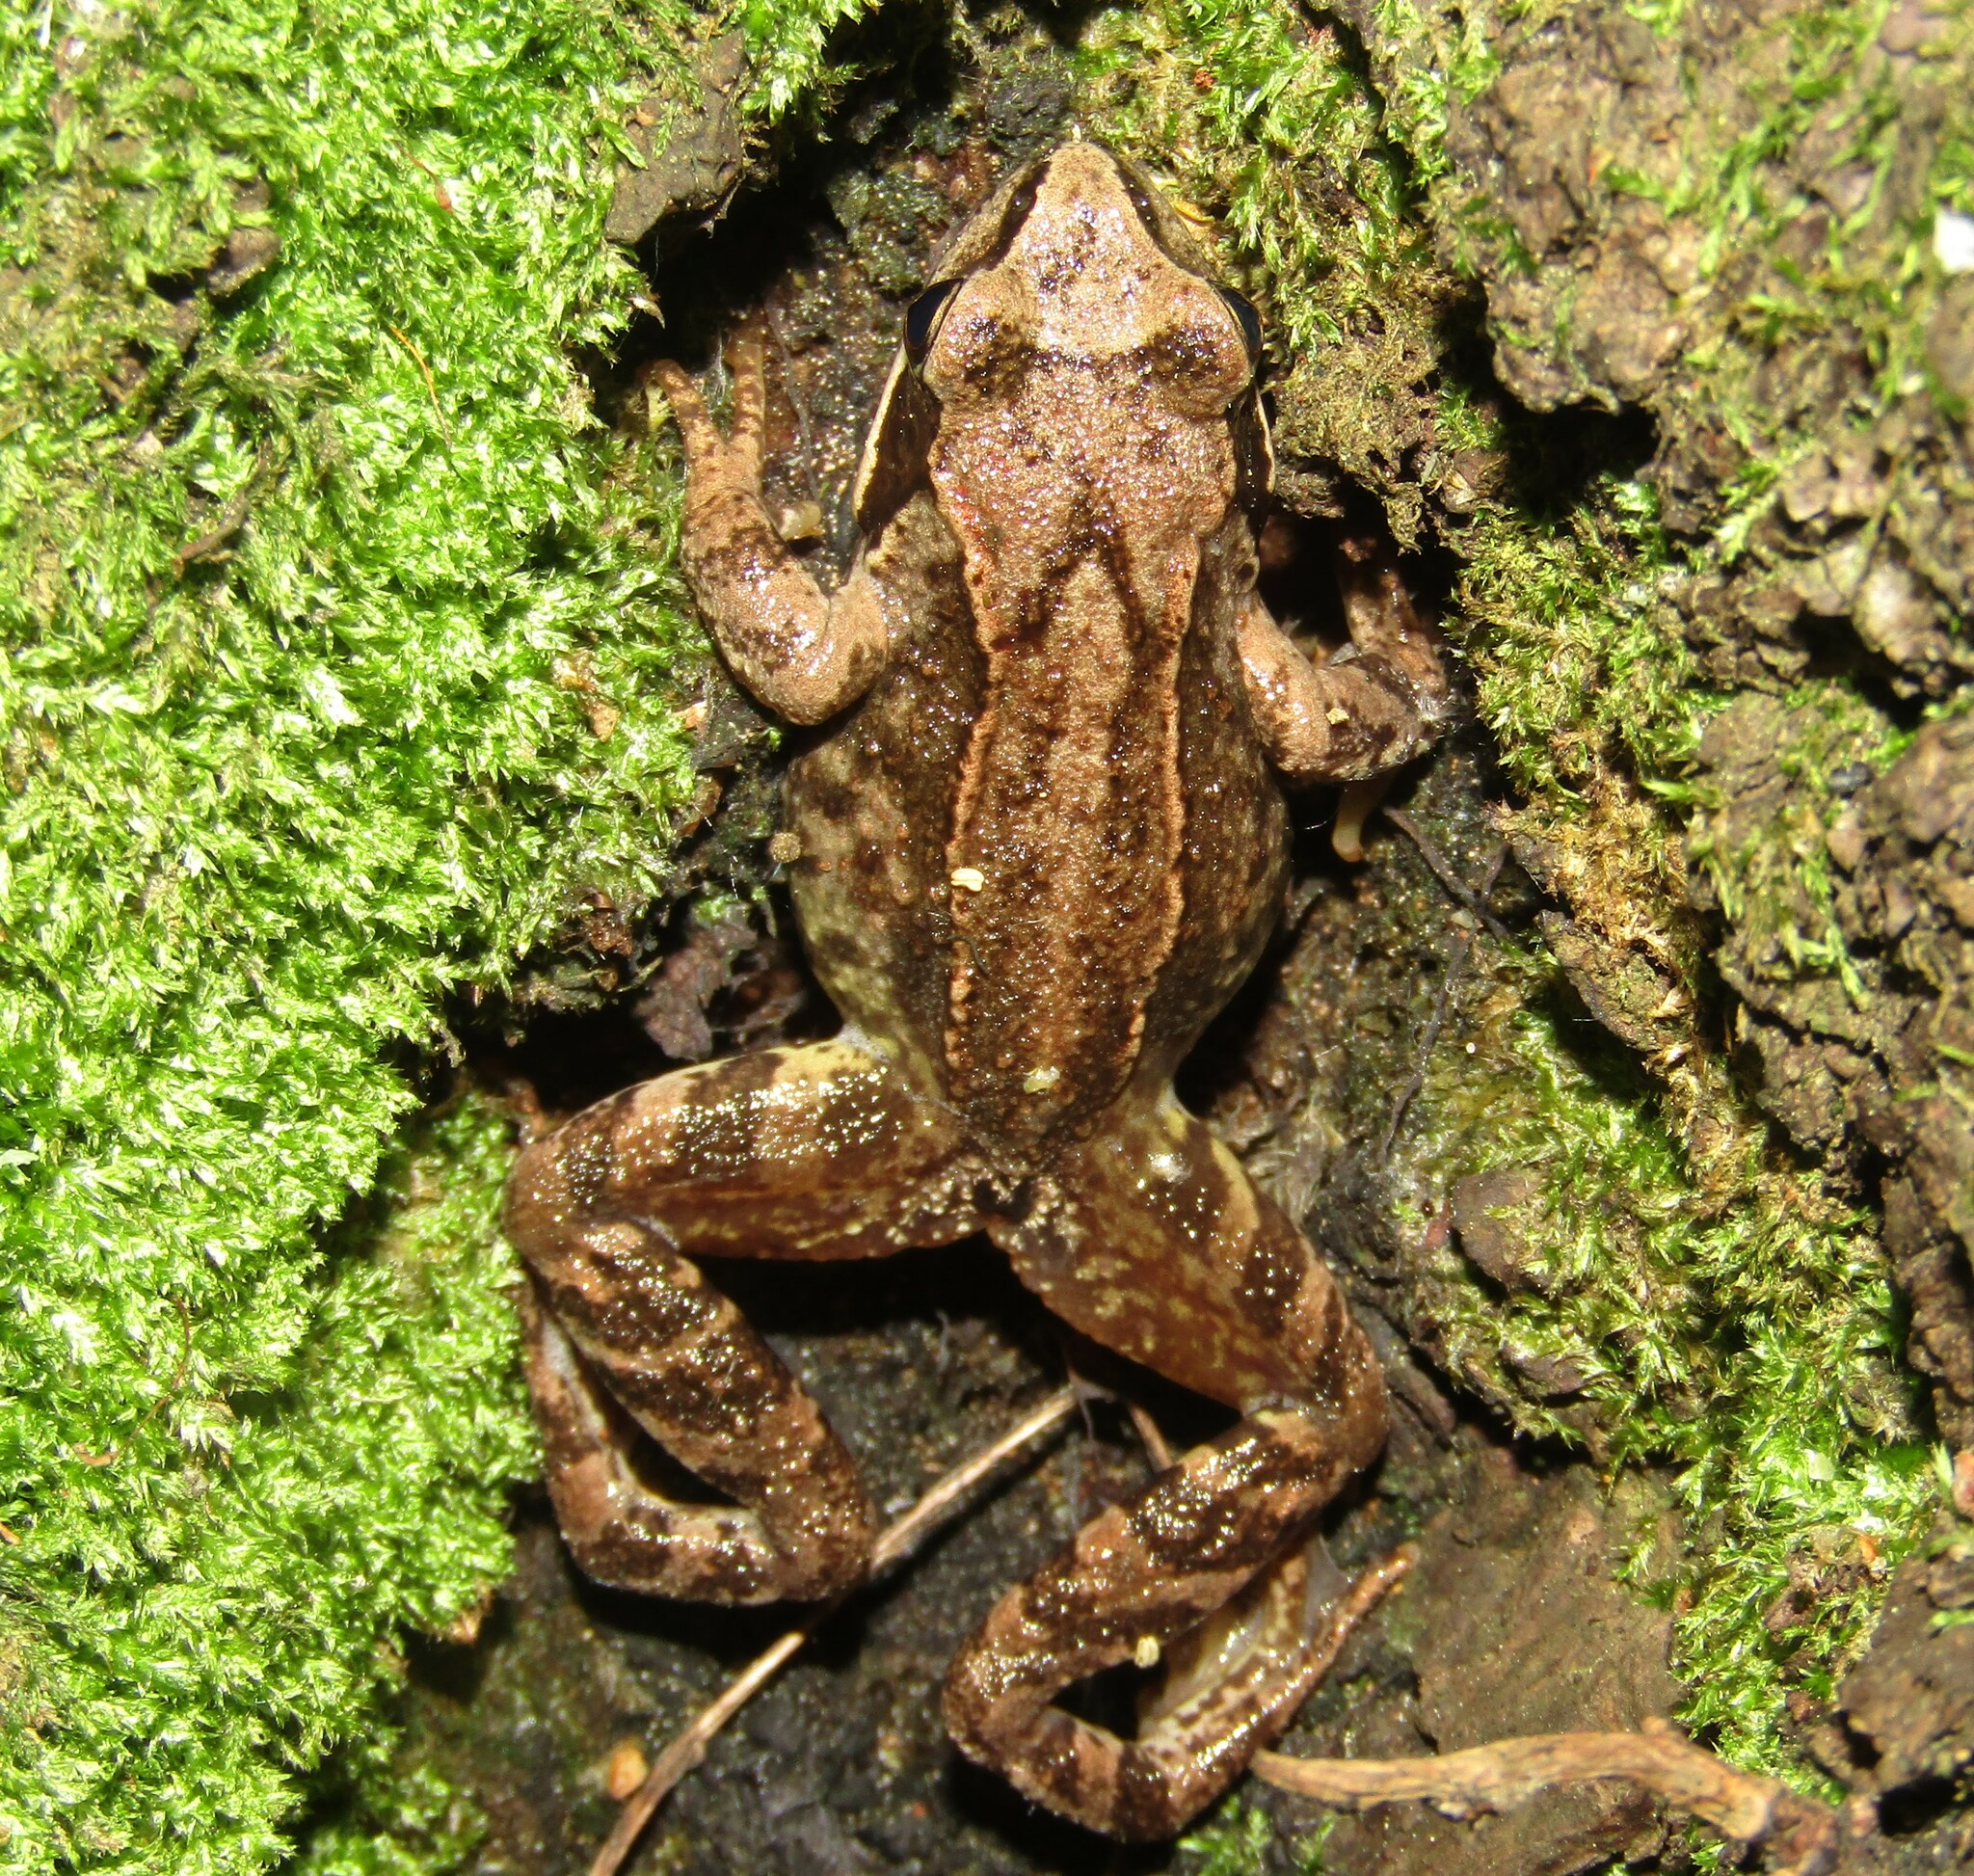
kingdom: Animalia
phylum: Chordata
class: Amphibia
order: Anura
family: Ranidae
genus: Rana
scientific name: Rana temporaria
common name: Common frog
